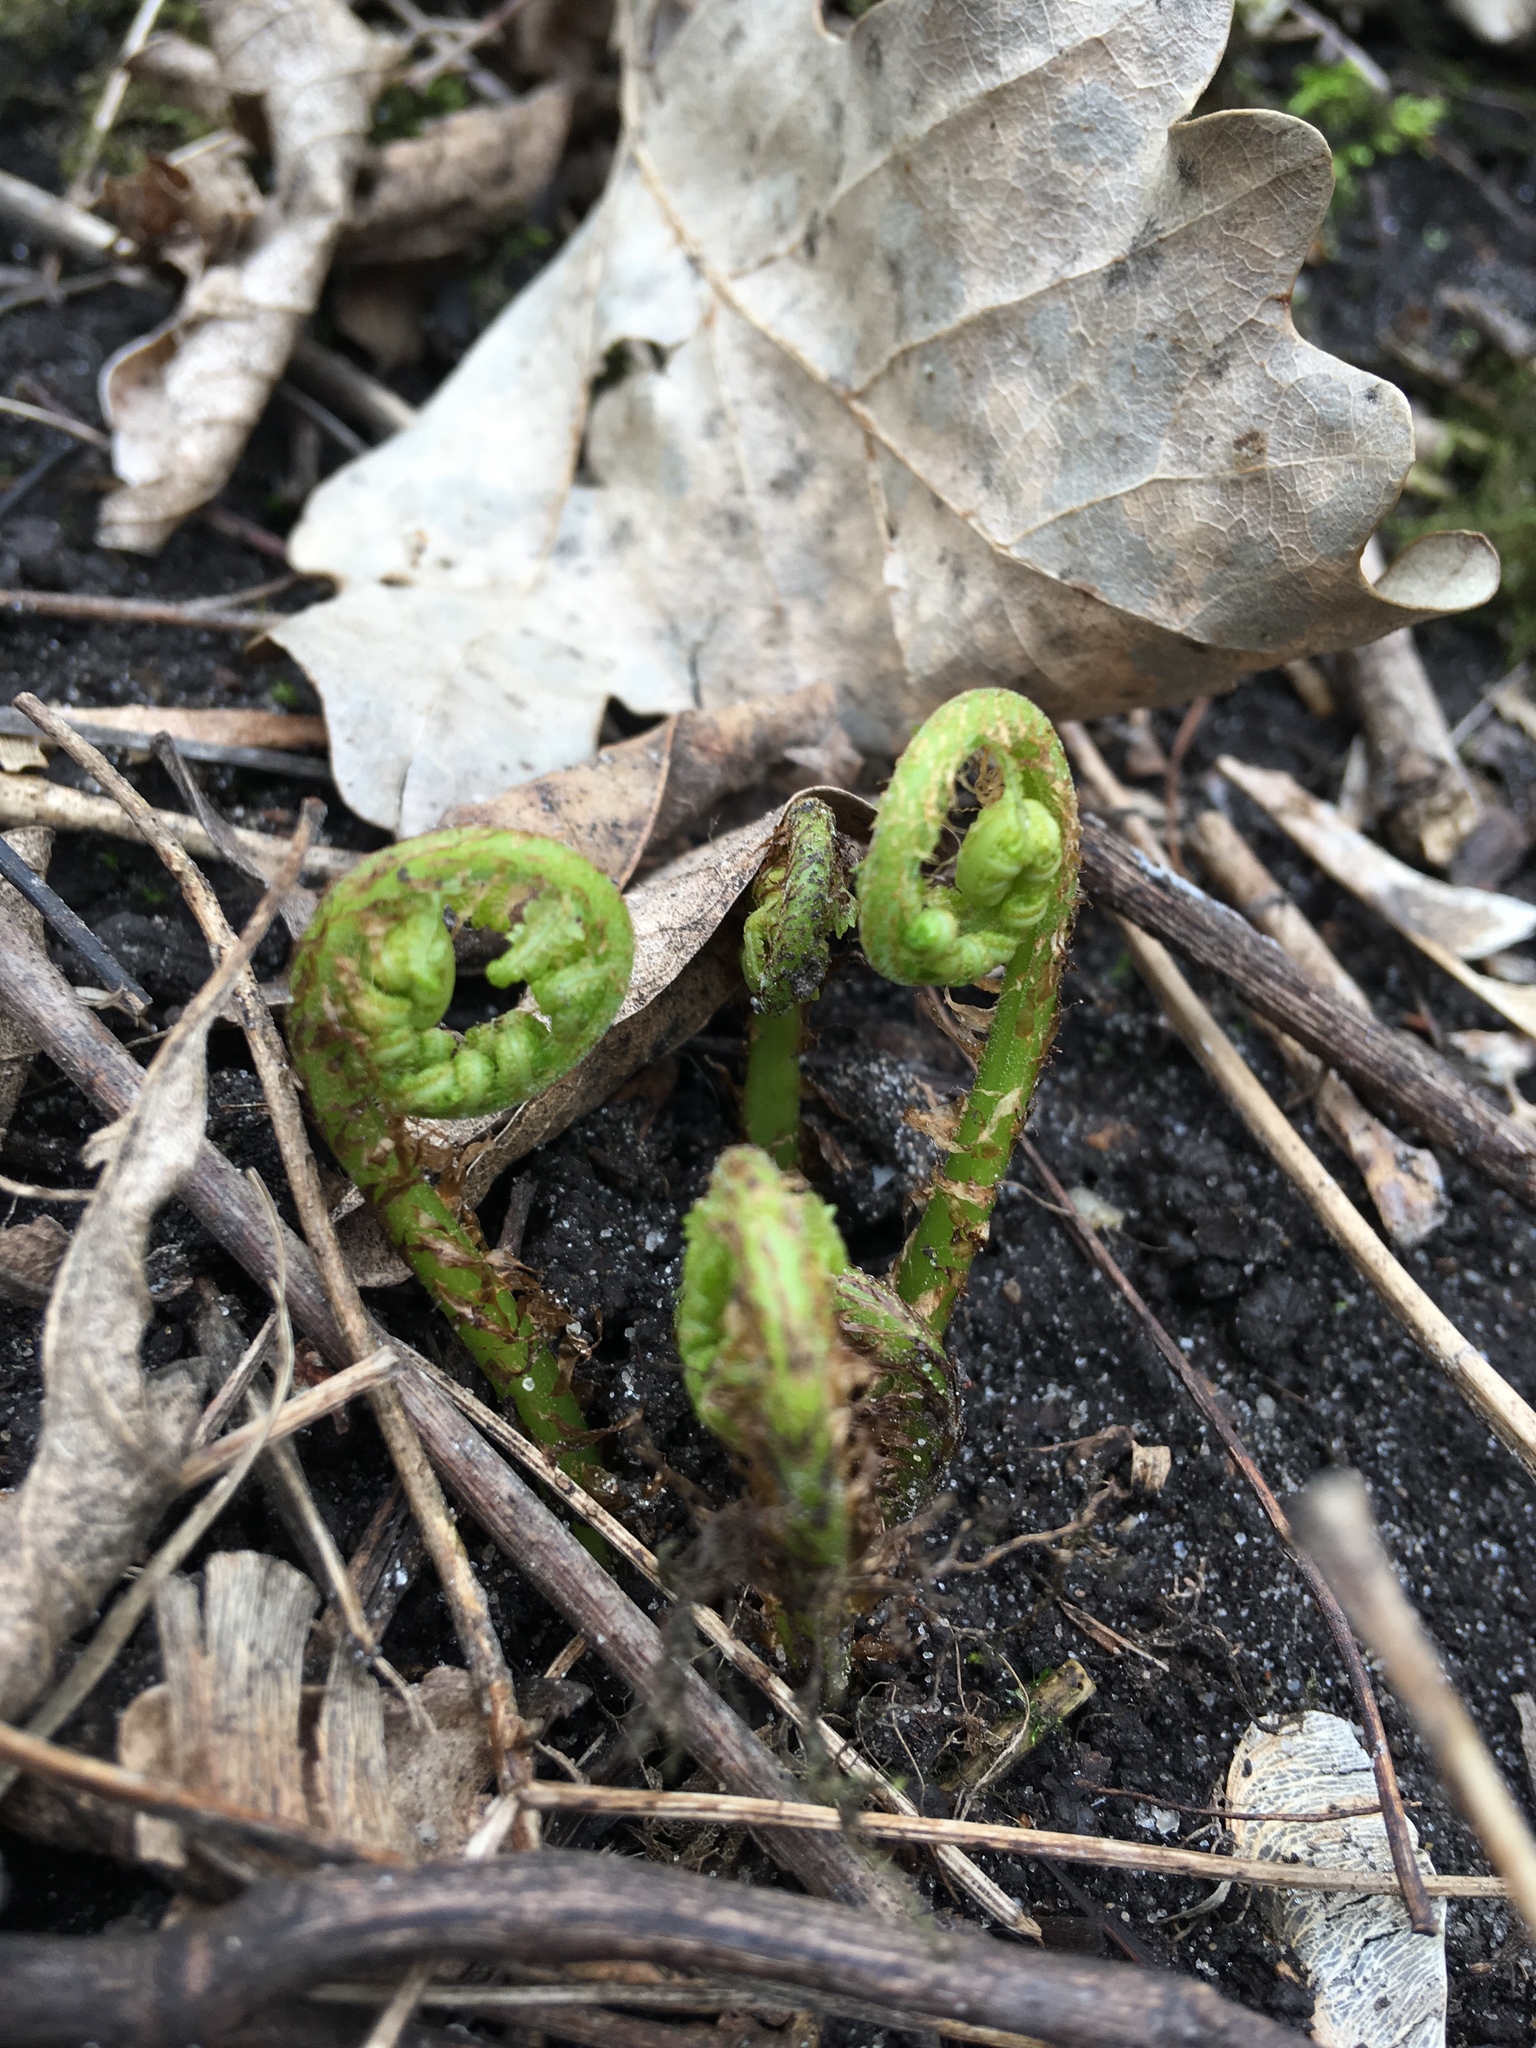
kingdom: Plantae
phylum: Tracheophyta
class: Polypodiopsida
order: Polypodiales
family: Athyriaceae
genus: Athyrium
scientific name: Athyrium angustum
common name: Northern lady fern
